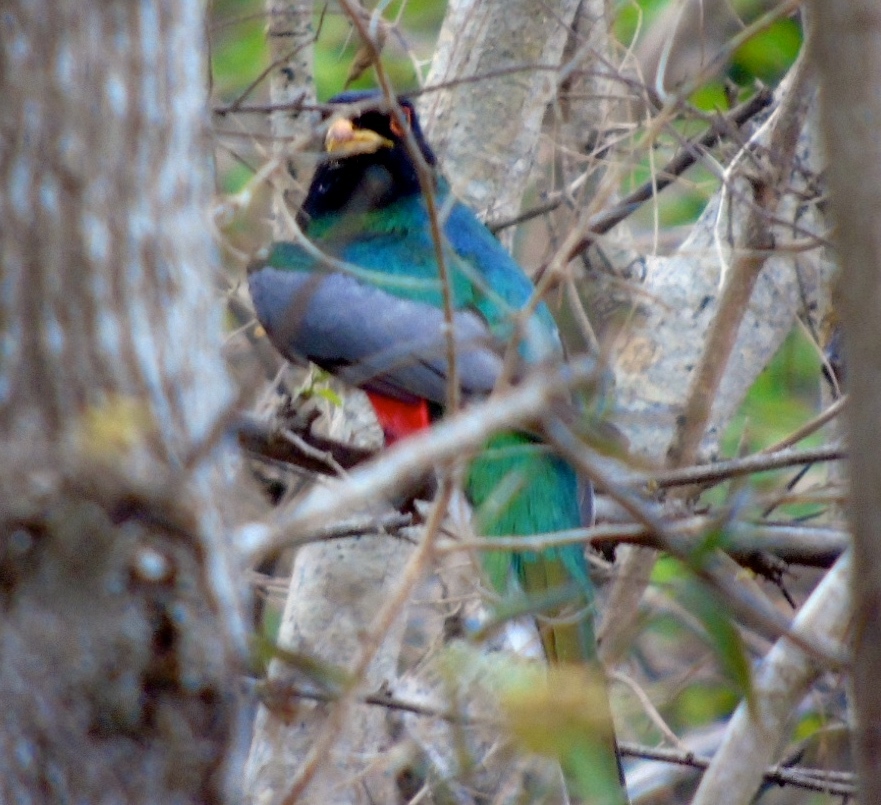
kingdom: Animalia
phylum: Chordata
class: Aves
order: Trogoniformes
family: Trogonidae
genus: Trogon
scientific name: Trogon elegans
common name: Elegant trogon
